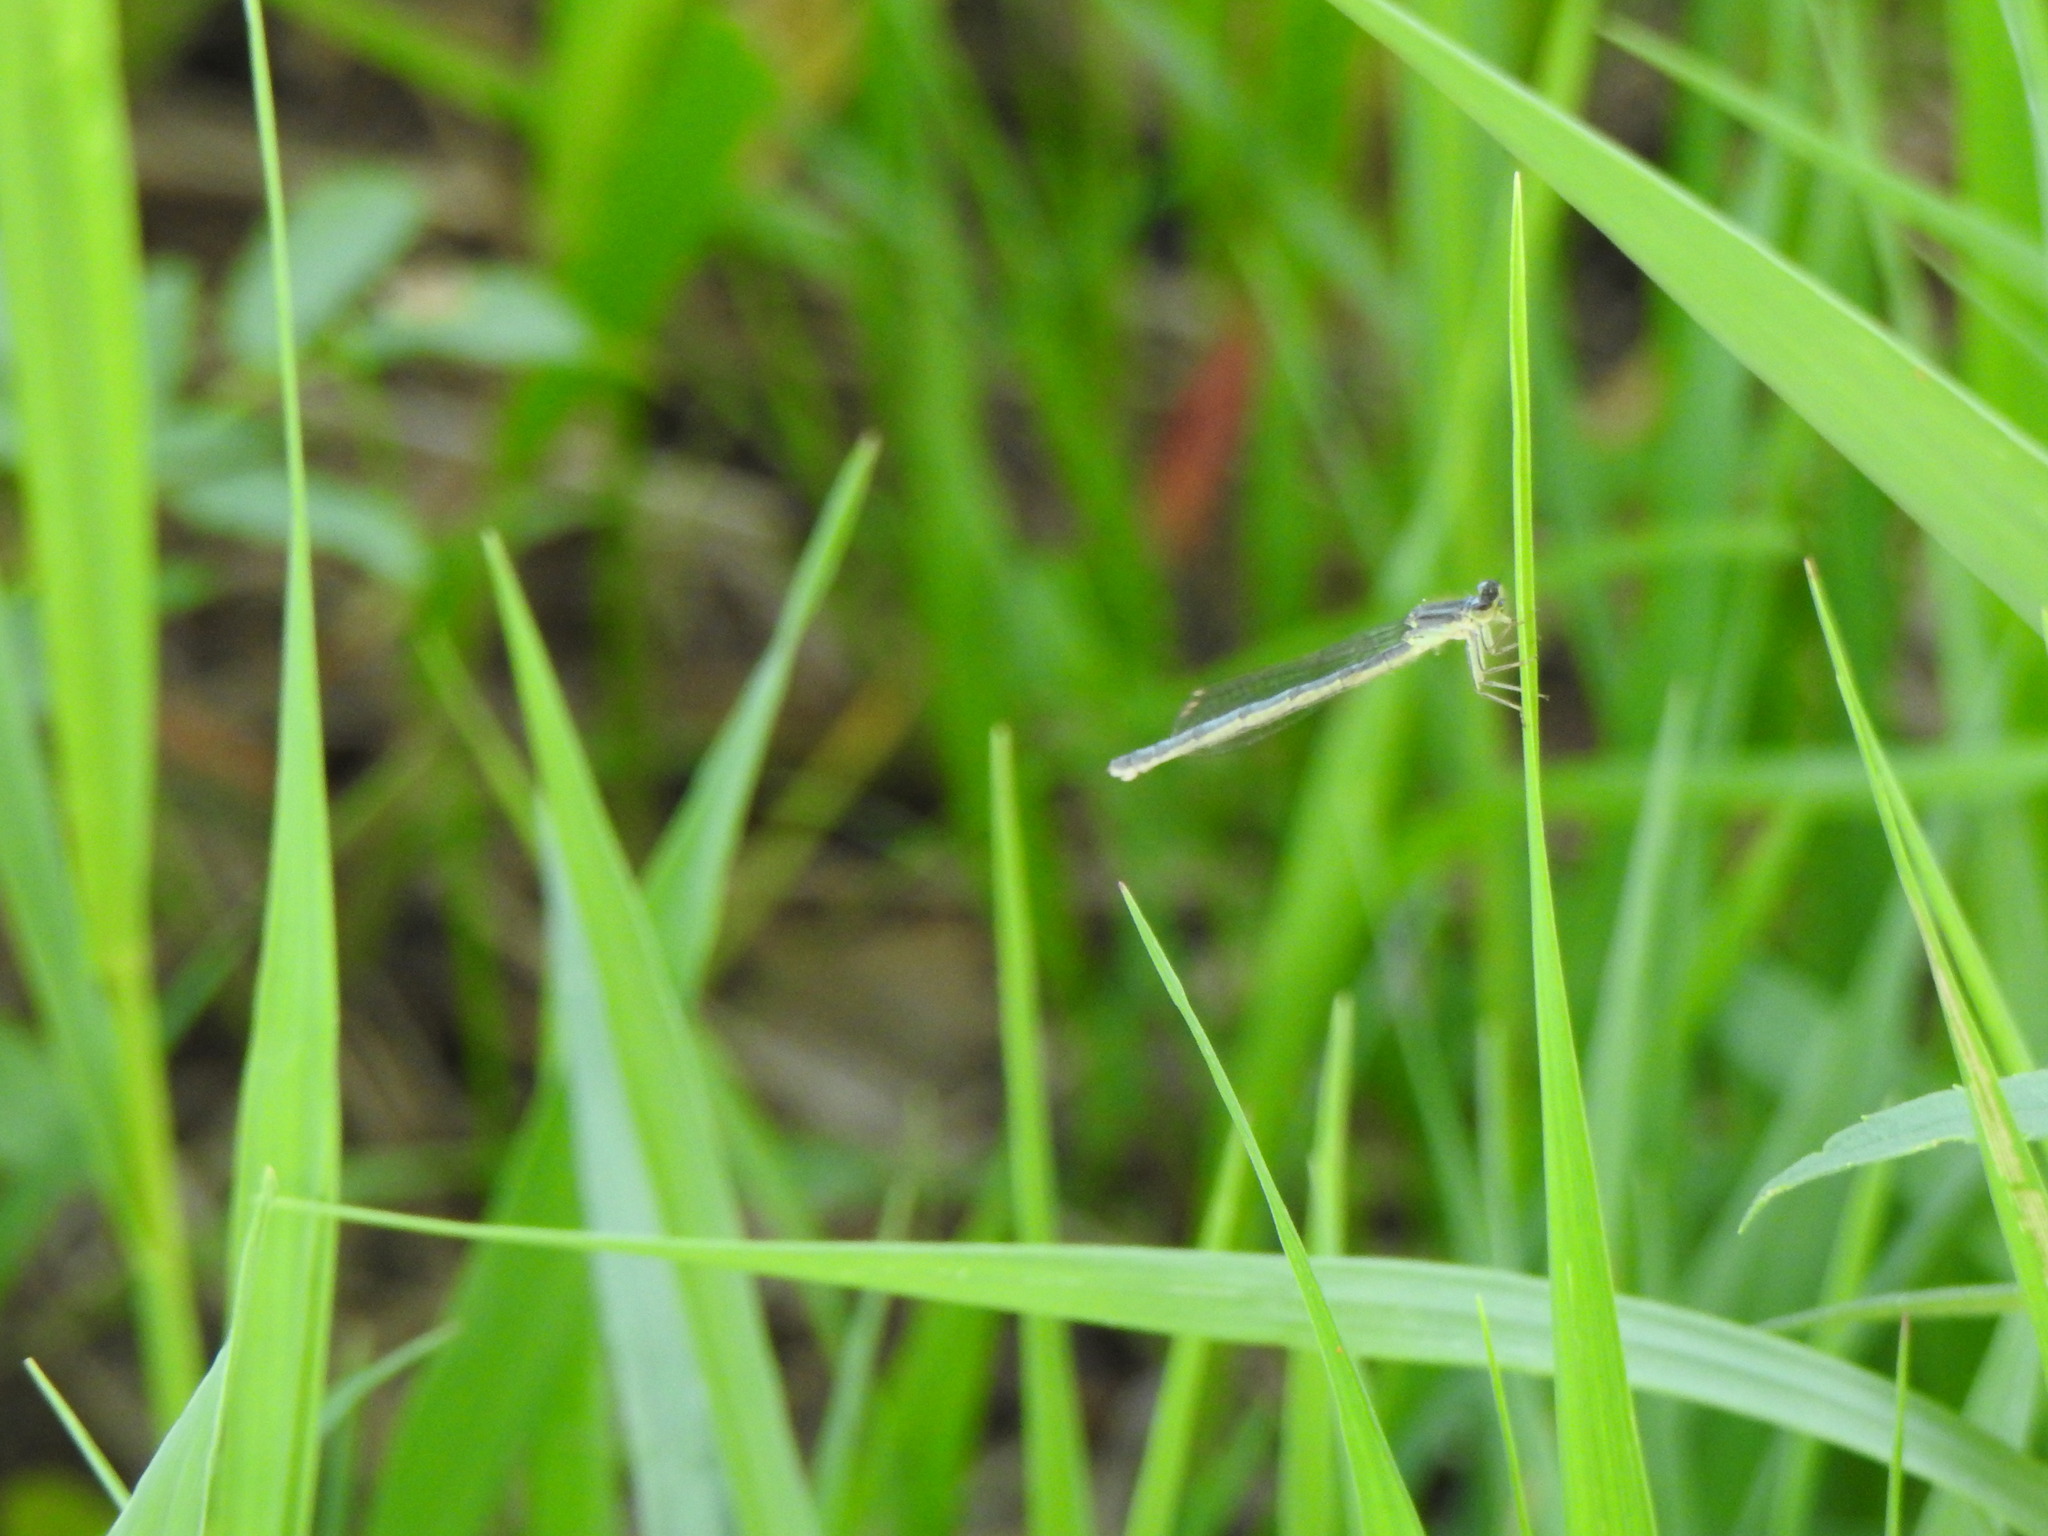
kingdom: Animalia
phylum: Arthropoda
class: Insecta
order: Odonata
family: Coenagrionidae
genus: Ischnura
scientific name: Ischnura verticalis
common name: Eastern forktail
